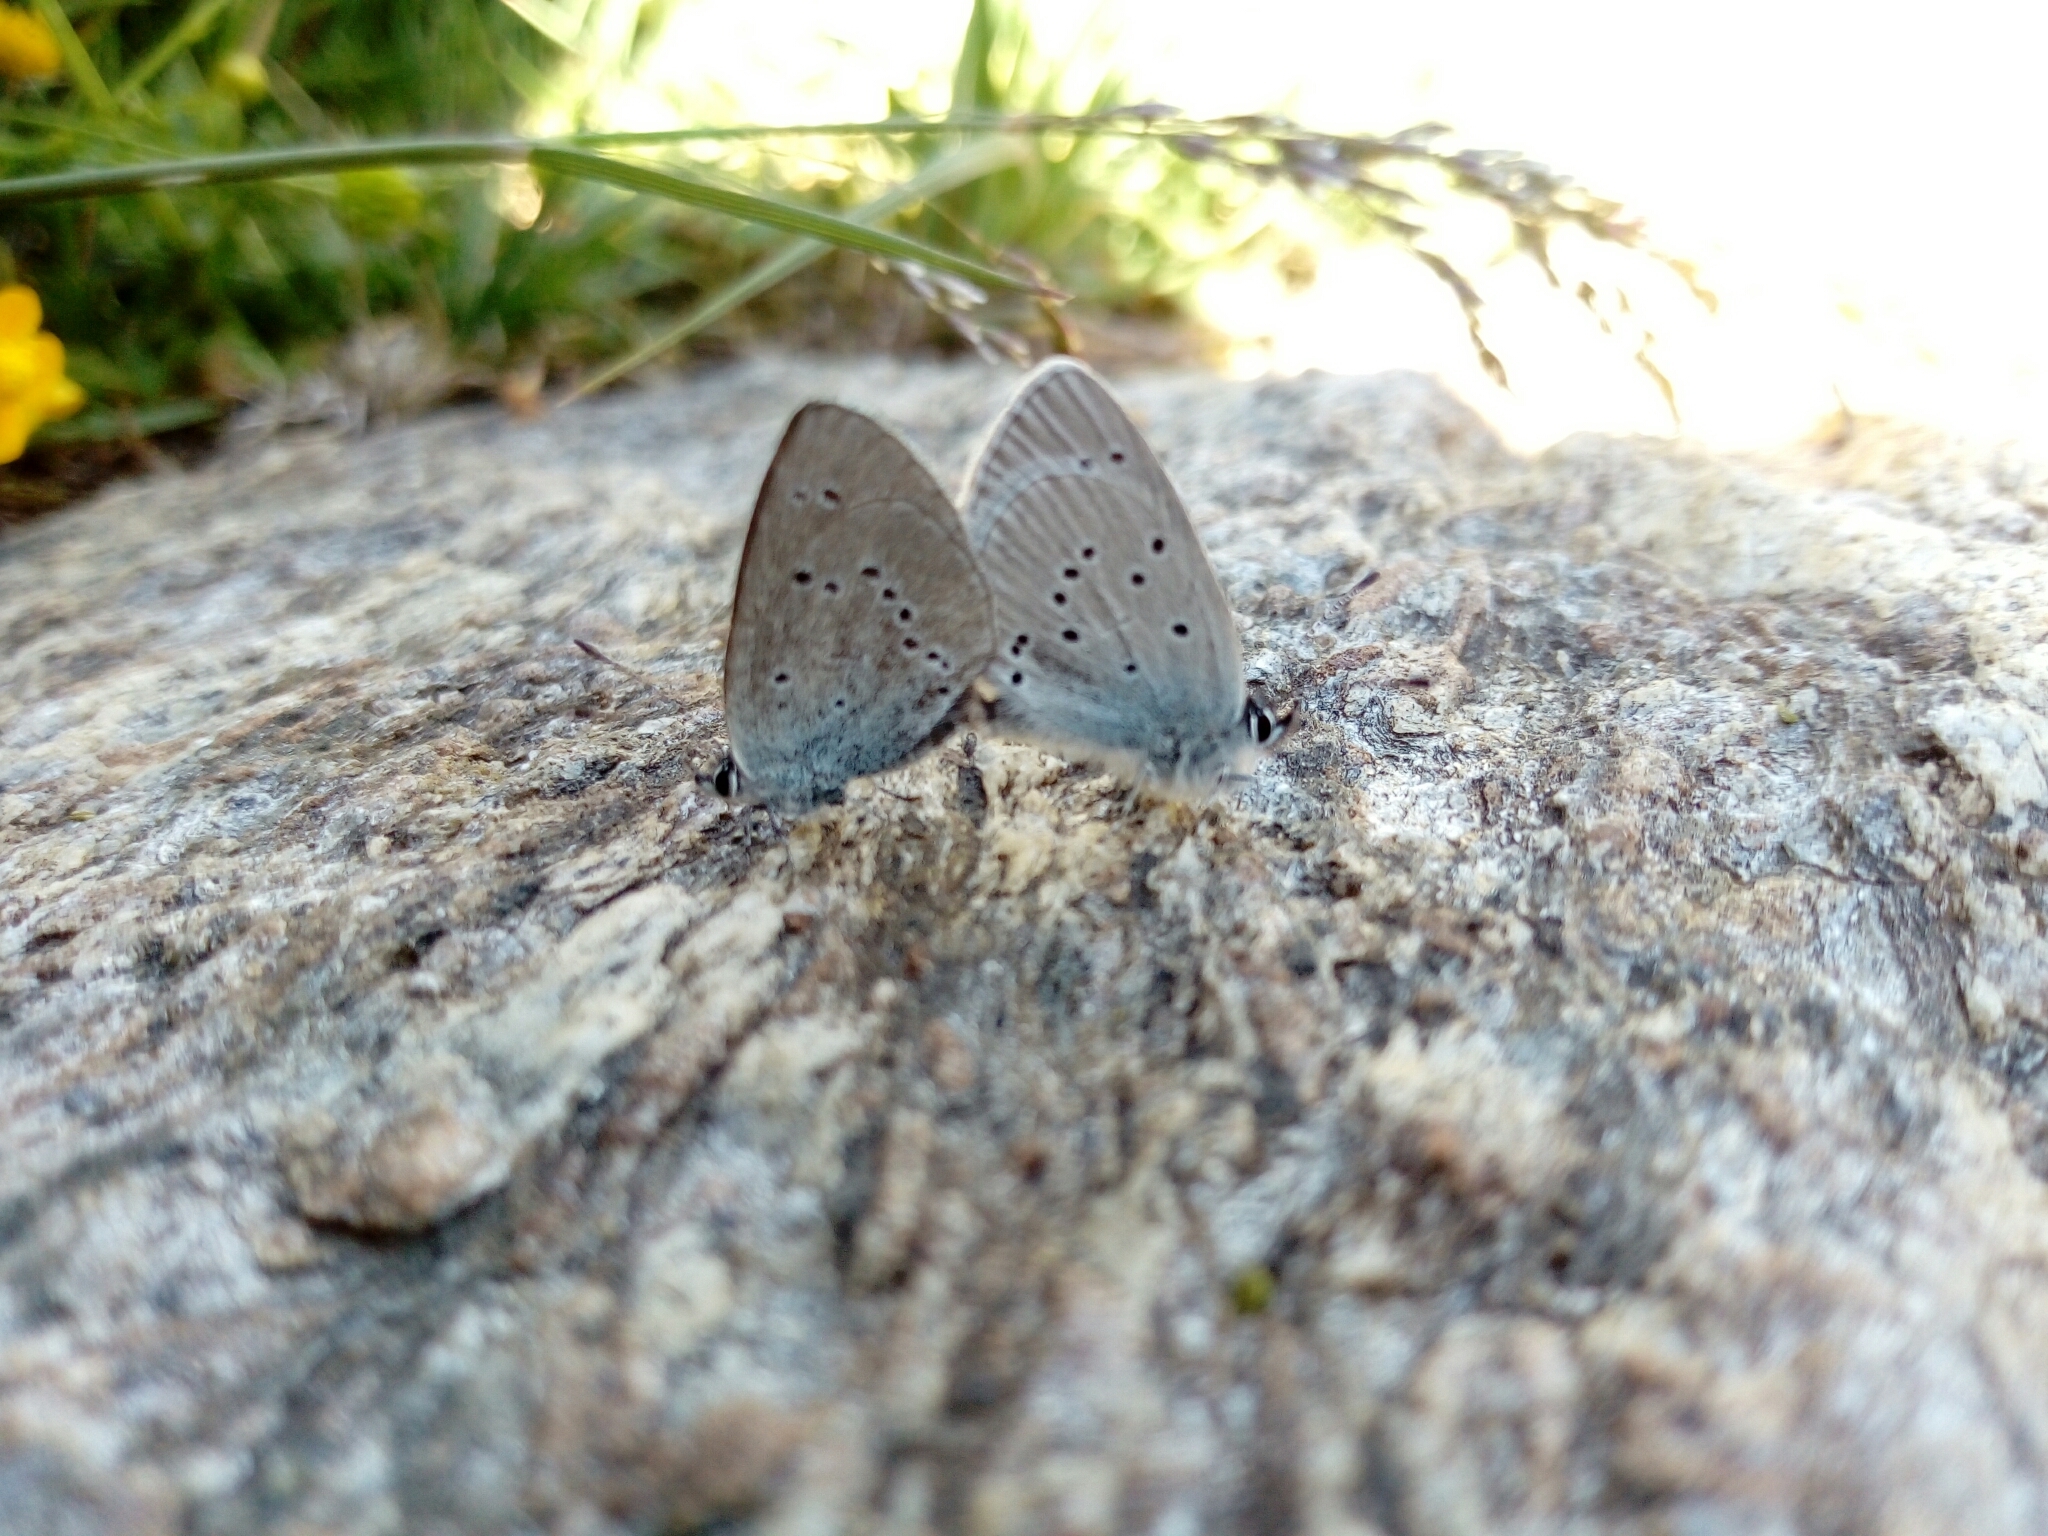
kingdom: Animalia
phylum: Arthropoda
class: Insecta
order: Lepidoptera
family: Lycaenidae
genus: Cupido
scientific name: Cupido minimus
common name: Small blue
